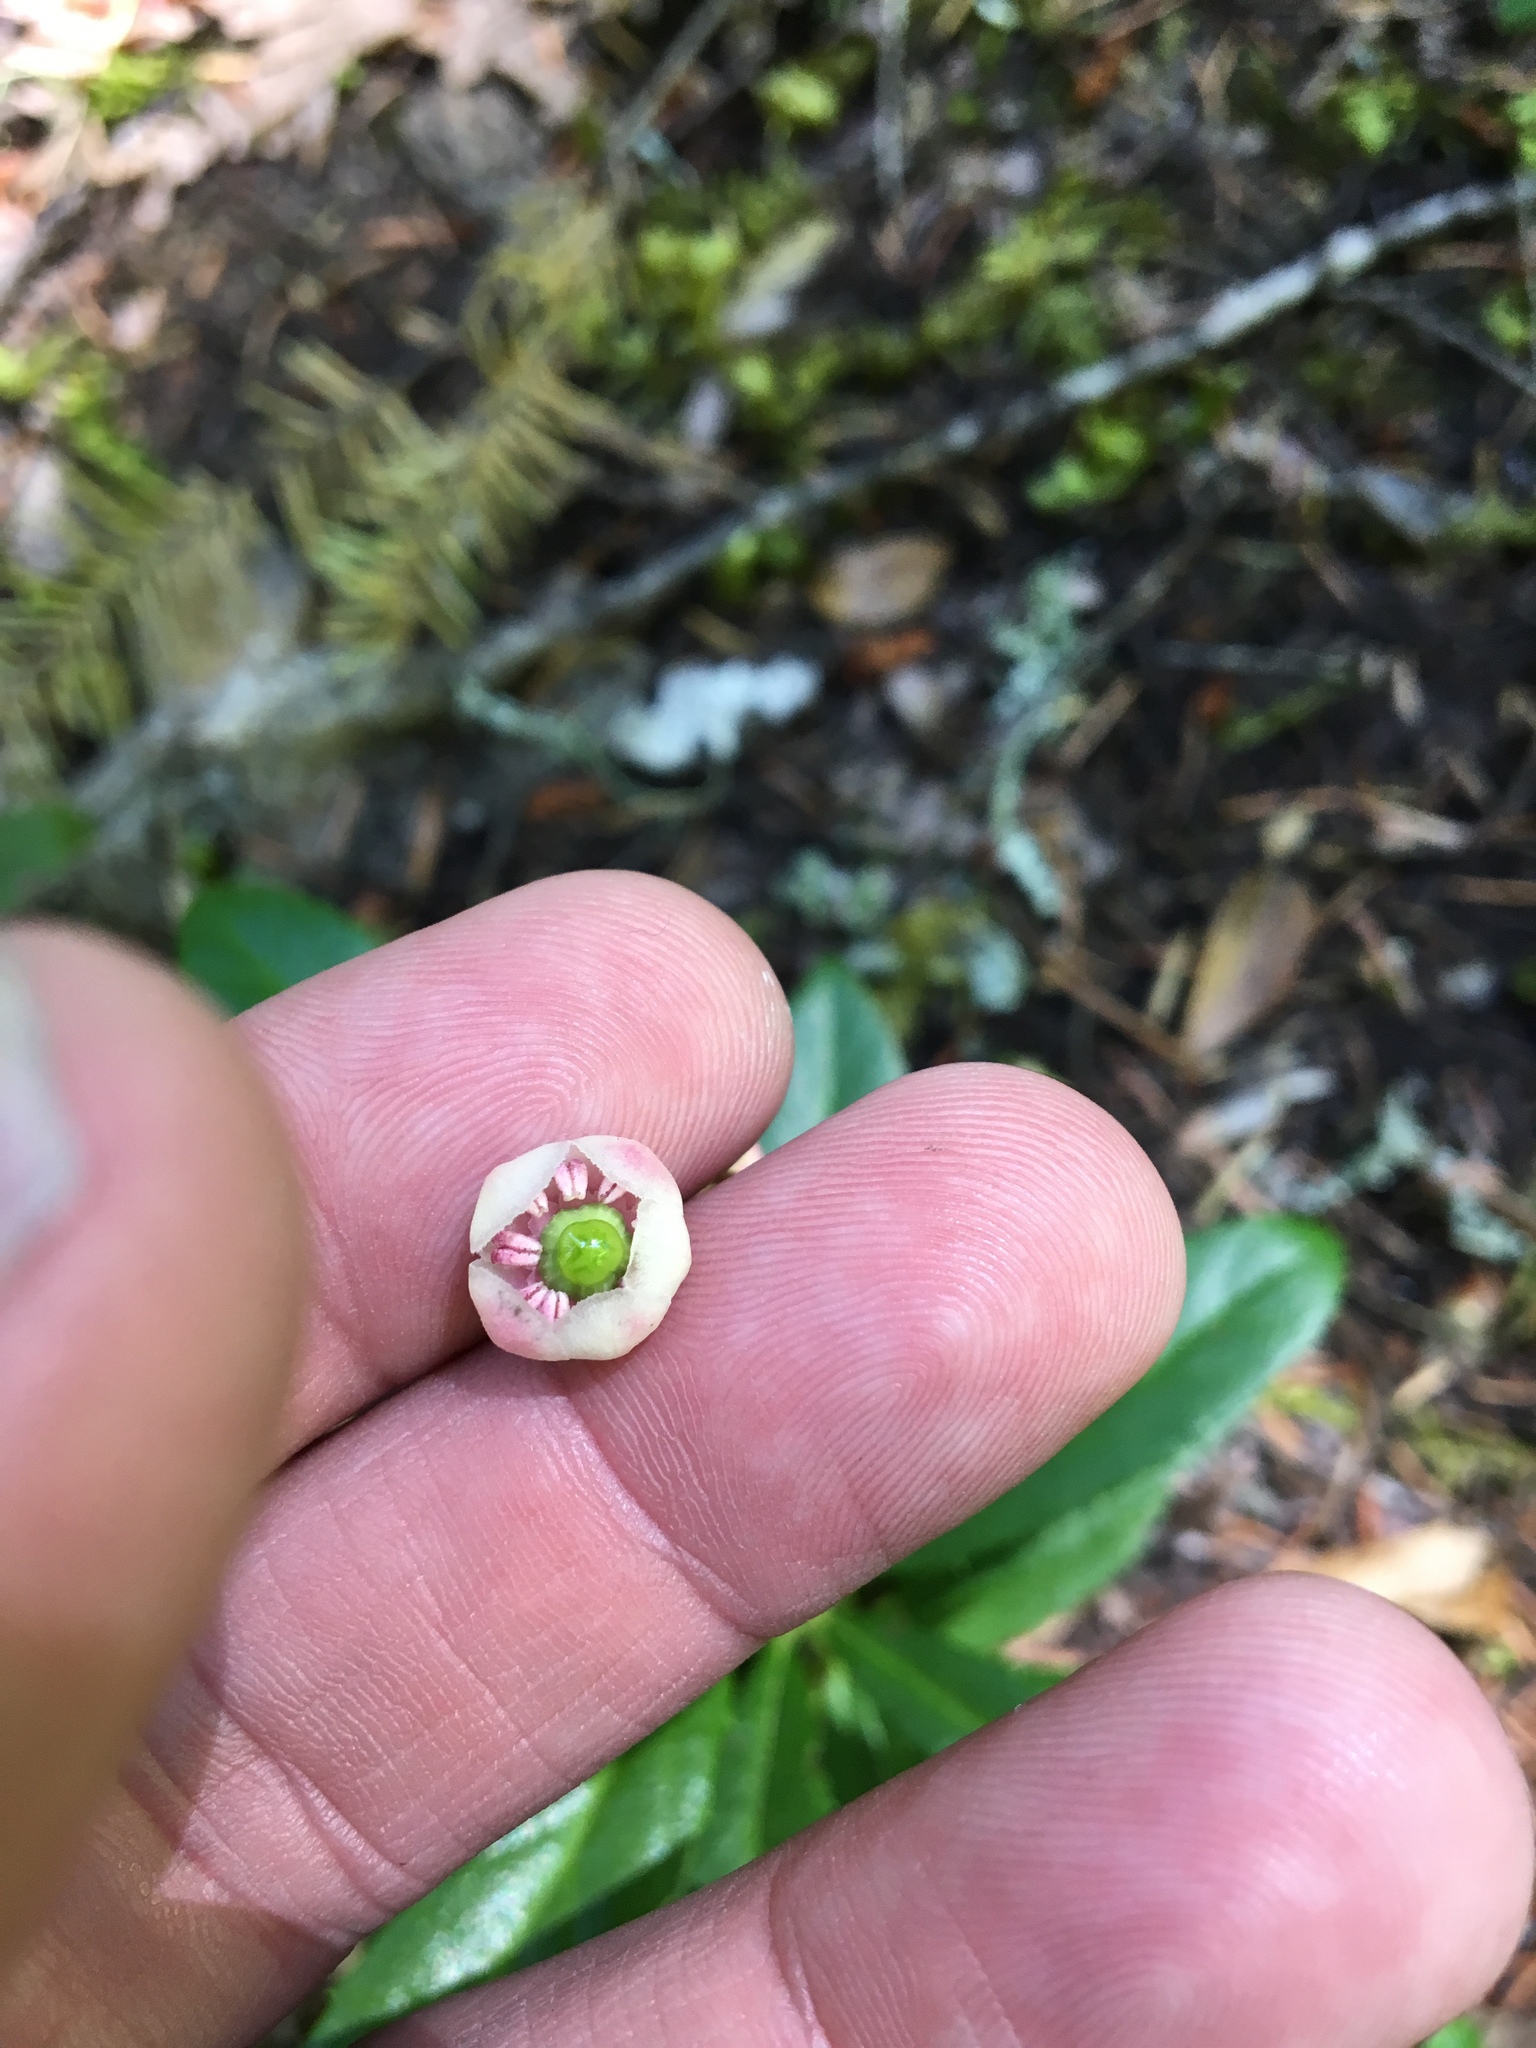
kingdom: Plantae
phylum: Tracheophyta
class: Magnoliopsida
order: Ericales
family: Ericaceae
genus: Chimaphila
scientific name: Chimaphila umbellata
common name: Pipsissewa
